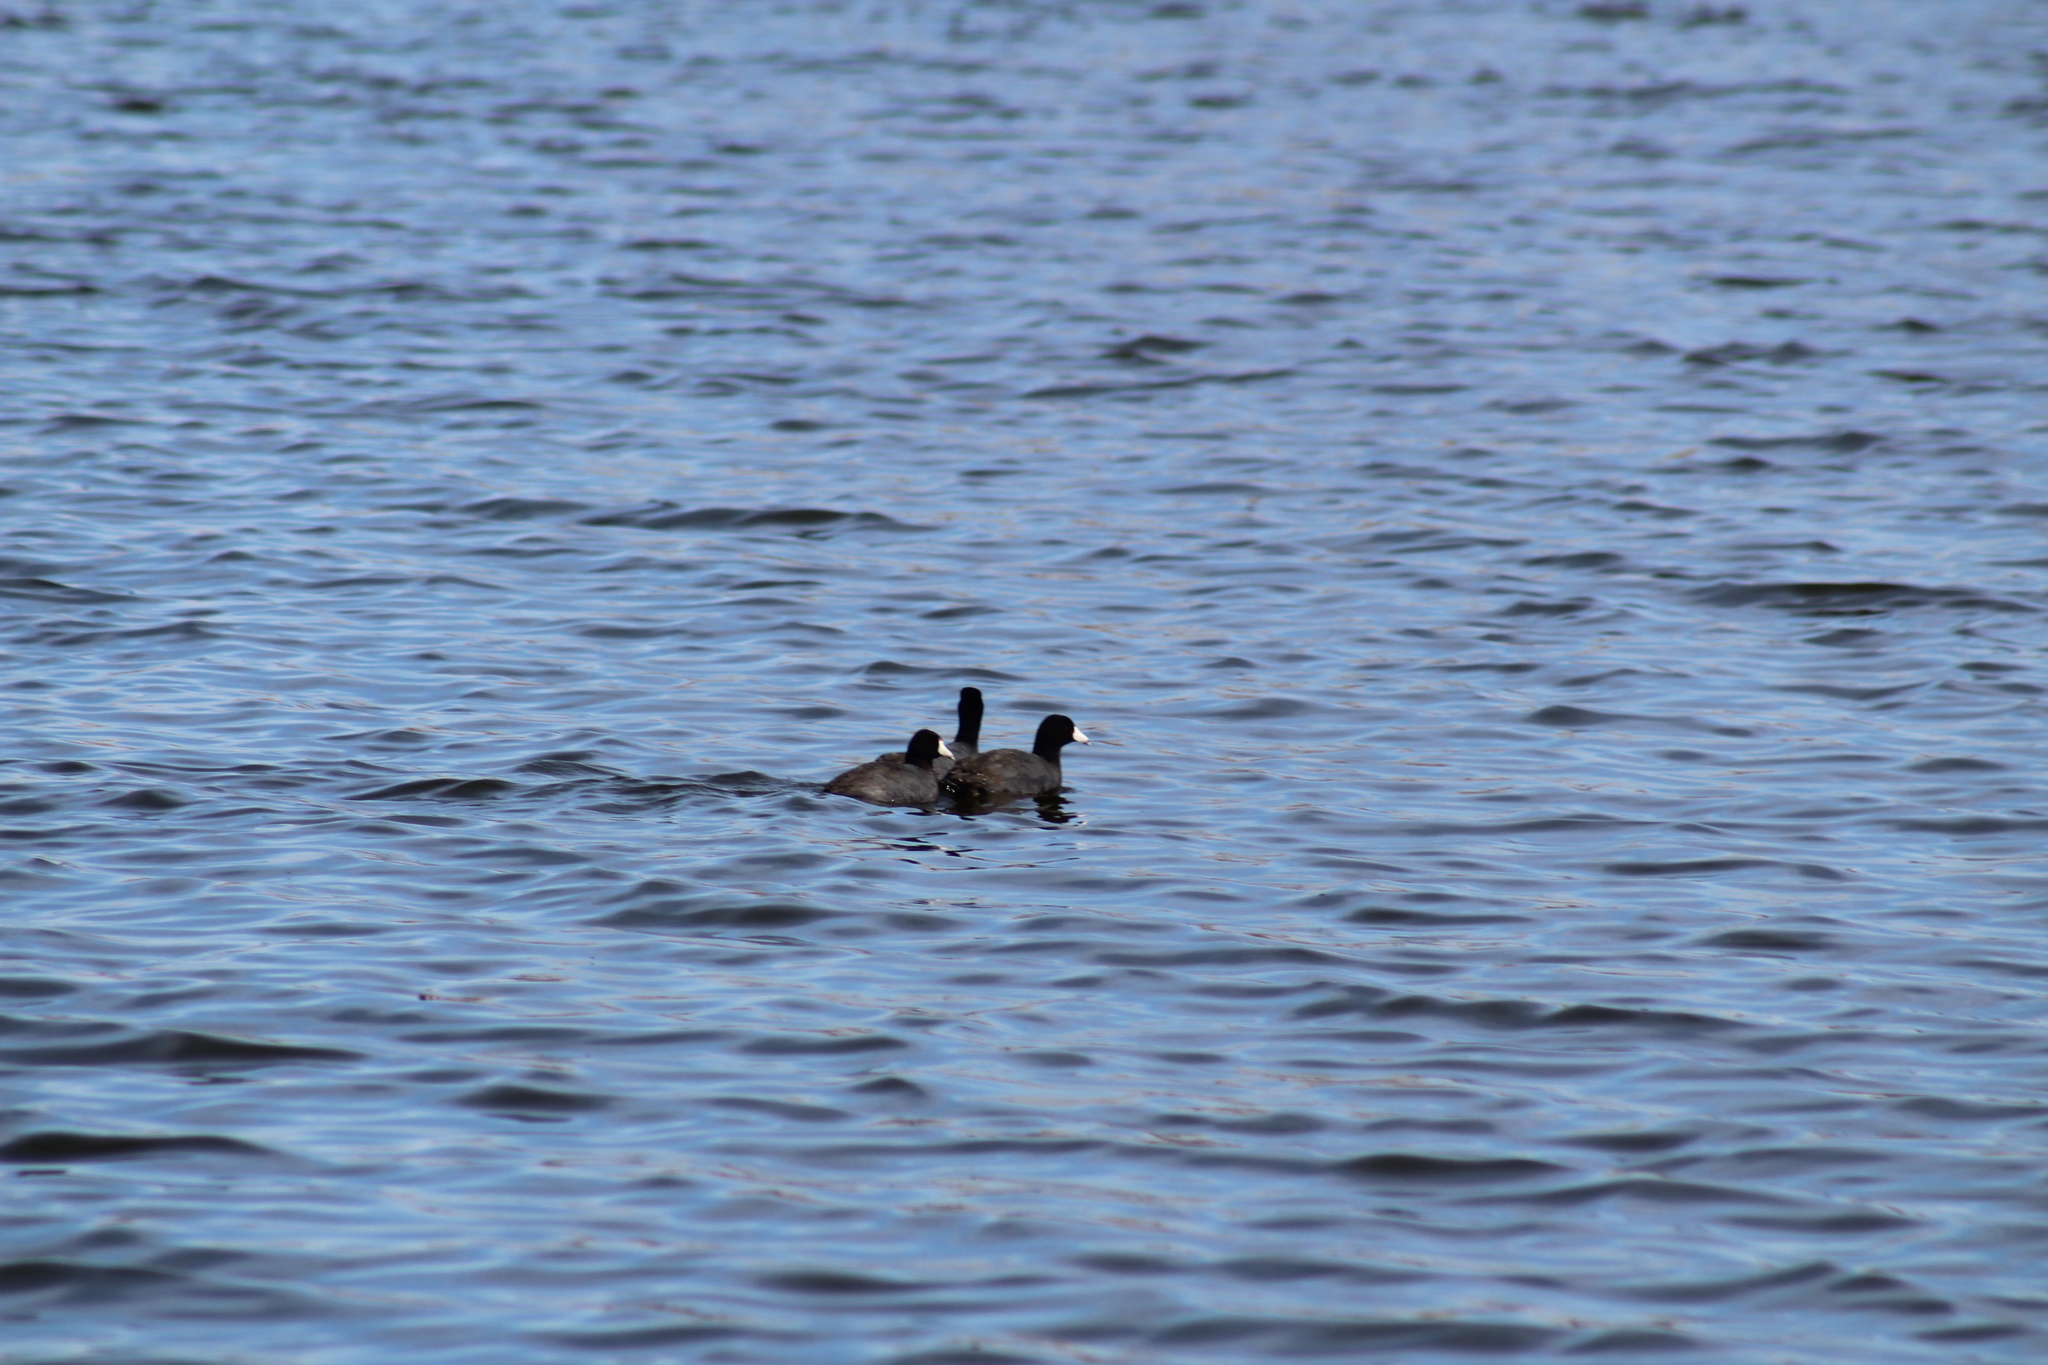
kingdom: Animalia
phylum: Chordata
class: Aves
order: Gruiformes
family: Rallidae
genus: Fulica
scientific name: Fulica americana
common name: American coot
